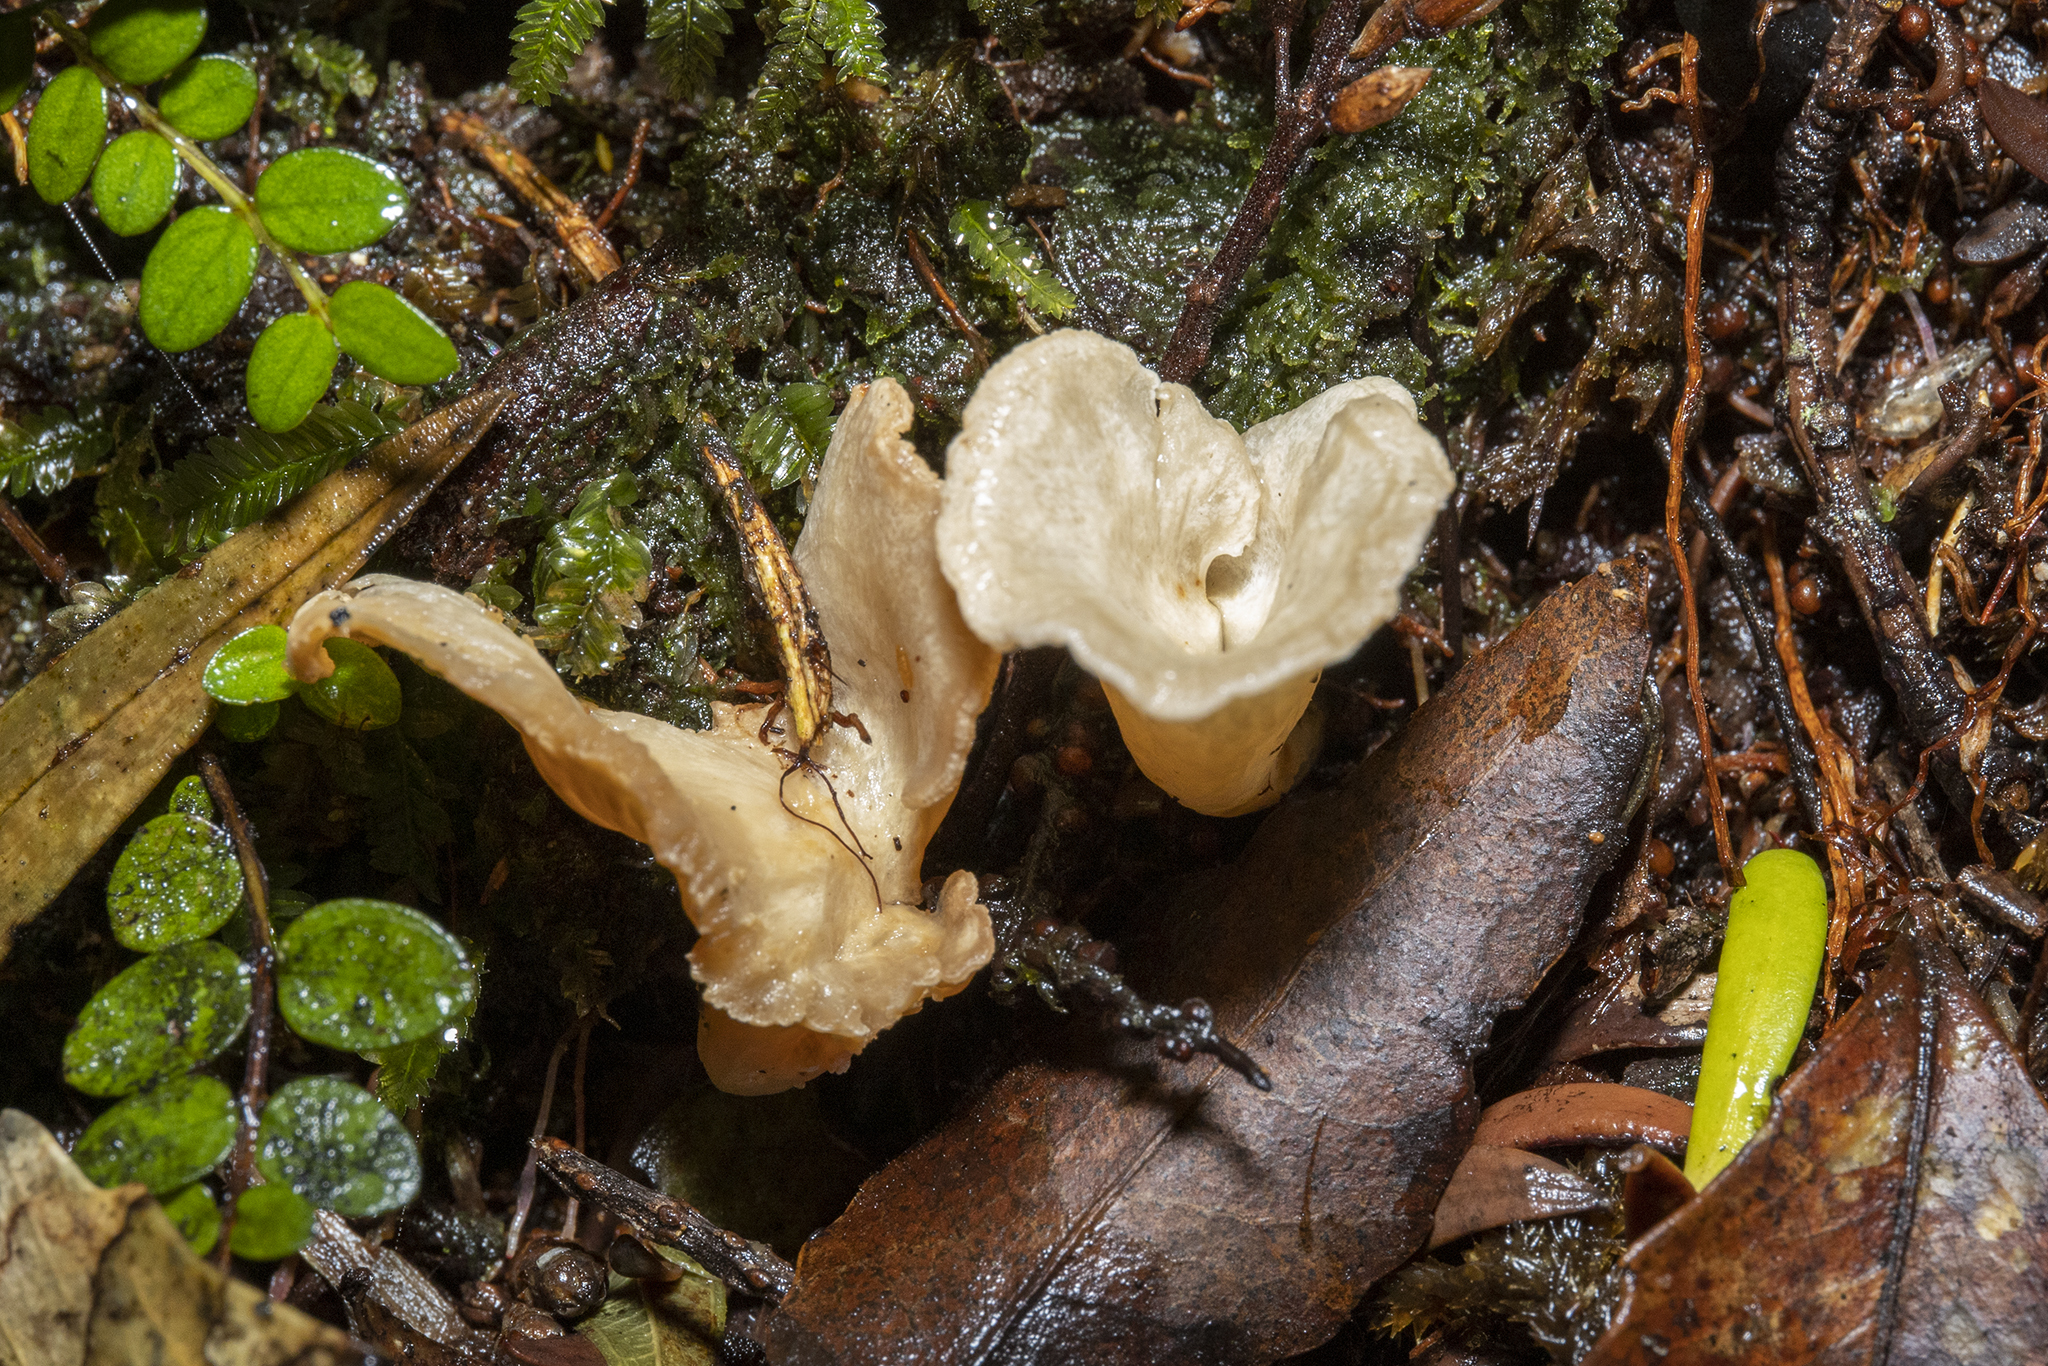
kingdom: Fungi
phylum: Basidiomycota
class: Agaricomycetes
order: Gomphales
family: Gomphaceae
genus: Gloeocantharellus
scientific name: Gloeocantharellus novae-zelandiae
